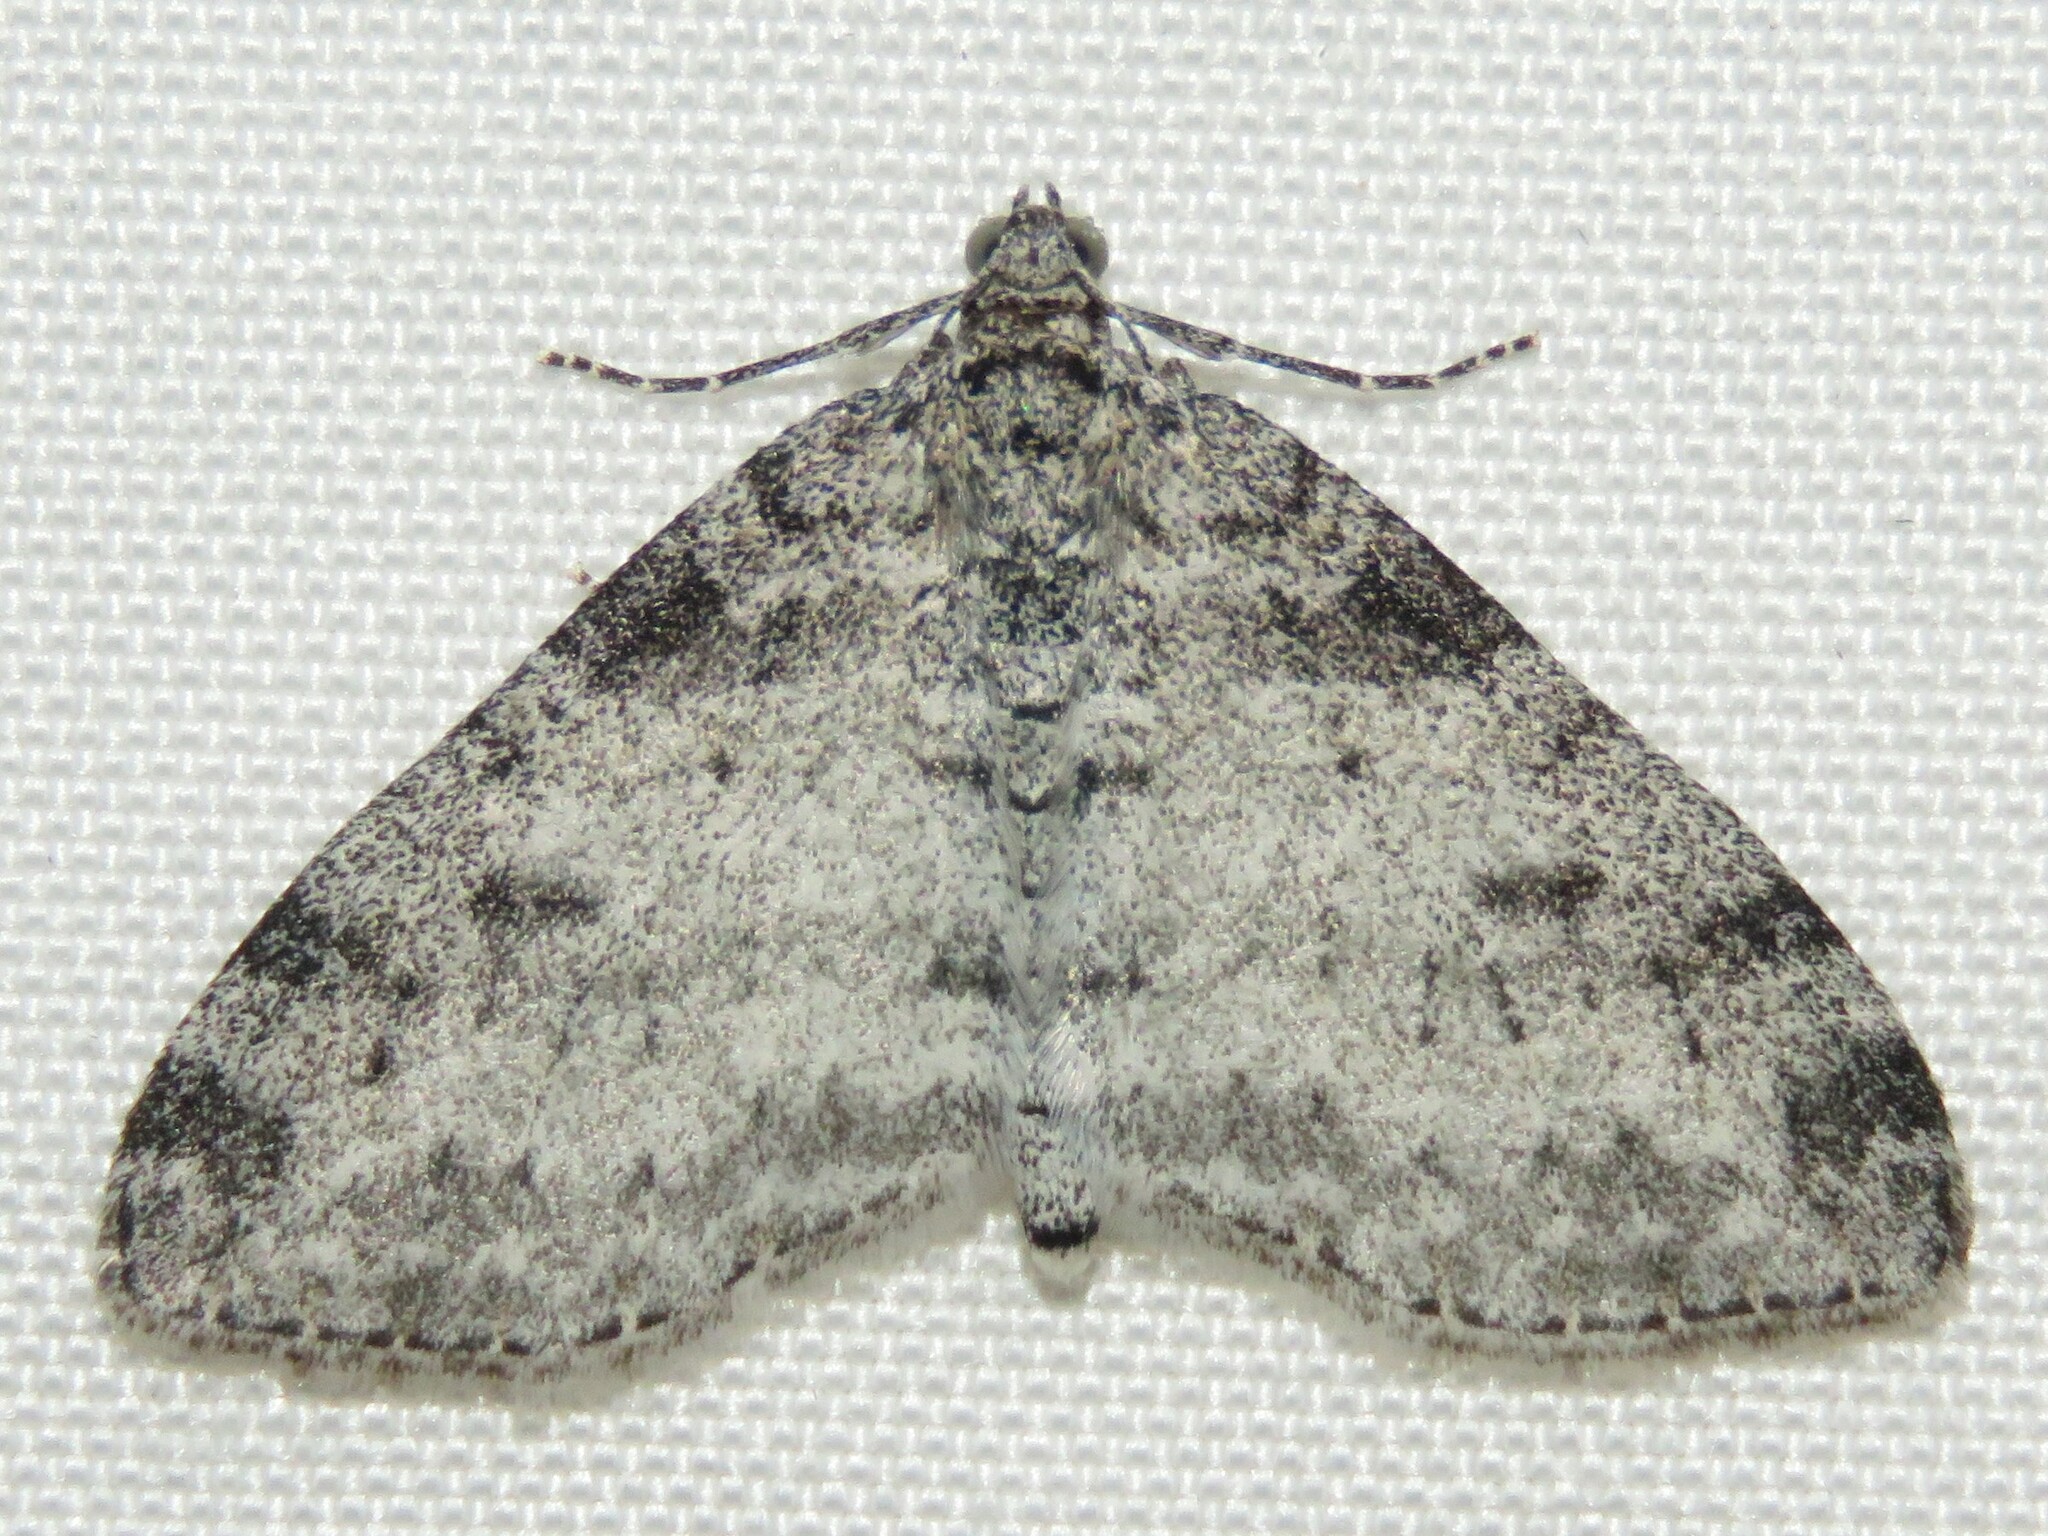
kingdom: Animalia
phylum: Arthropoda
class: Insecta
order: Lepidoptera
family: Geometridae
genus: Lobophora
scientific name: Lobophora nivigerata
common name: Powdered bigwing
